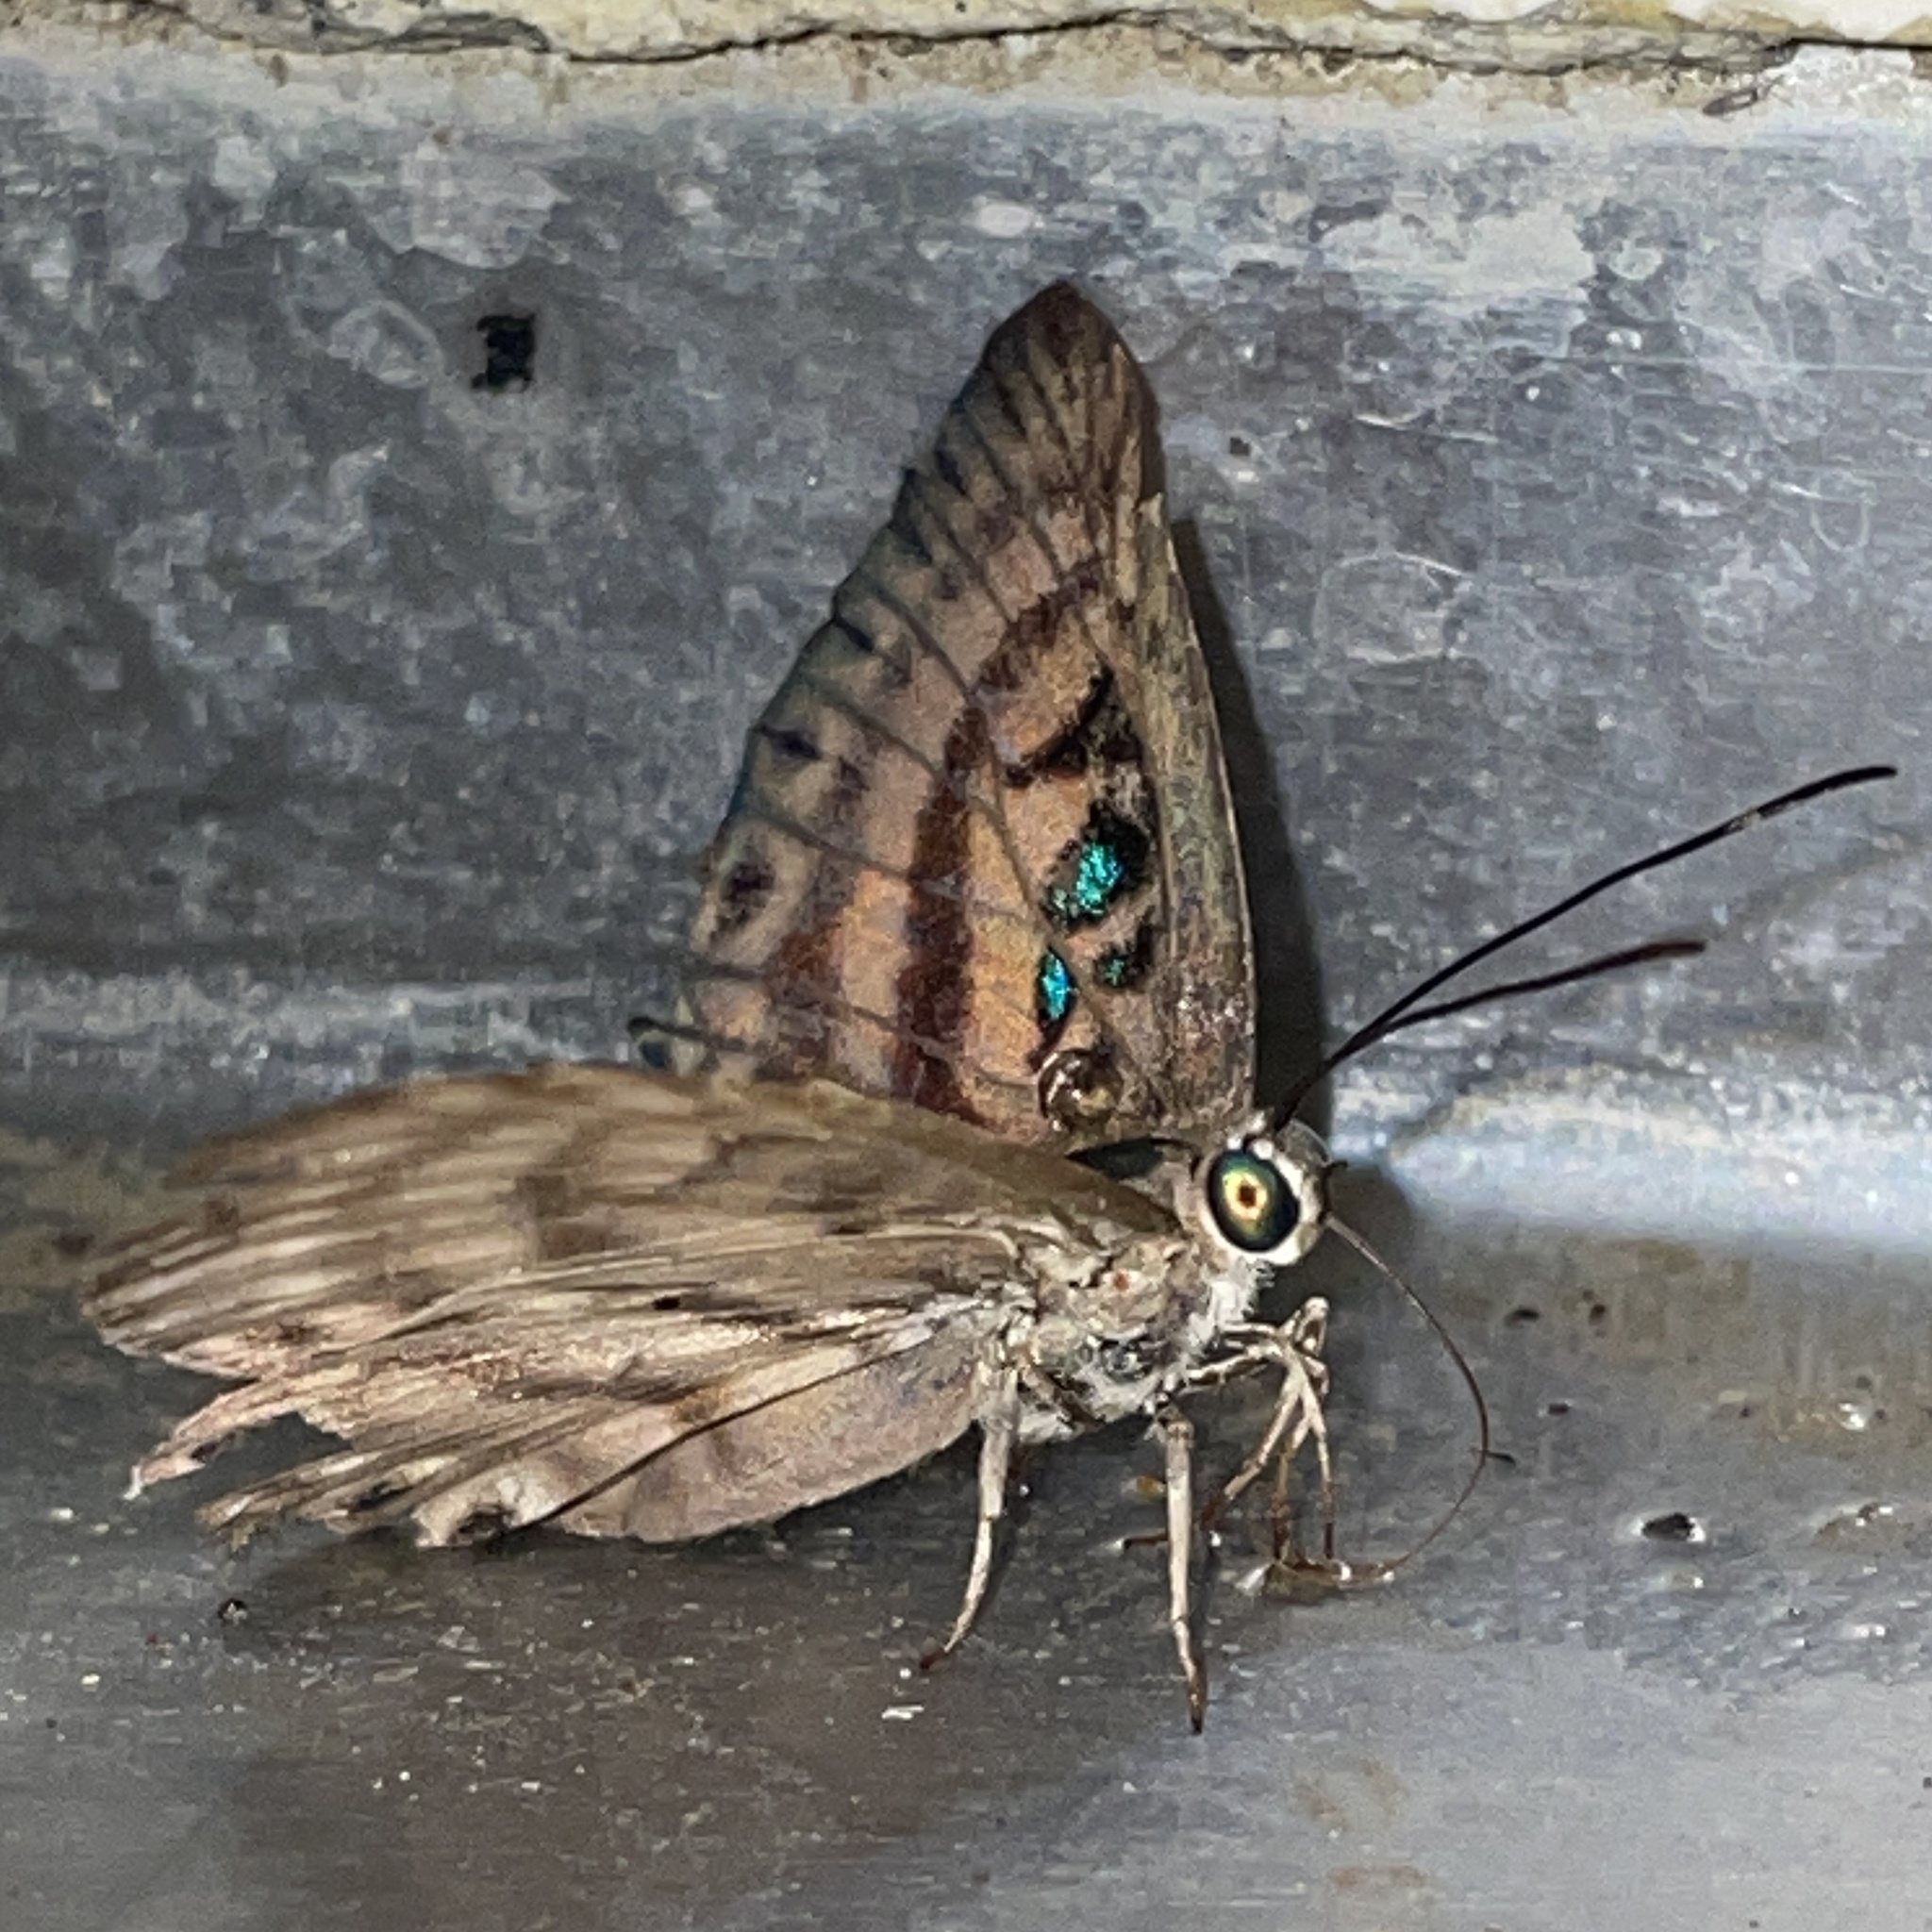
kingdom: Animalia
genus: Alesa
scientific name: Alesa prema
